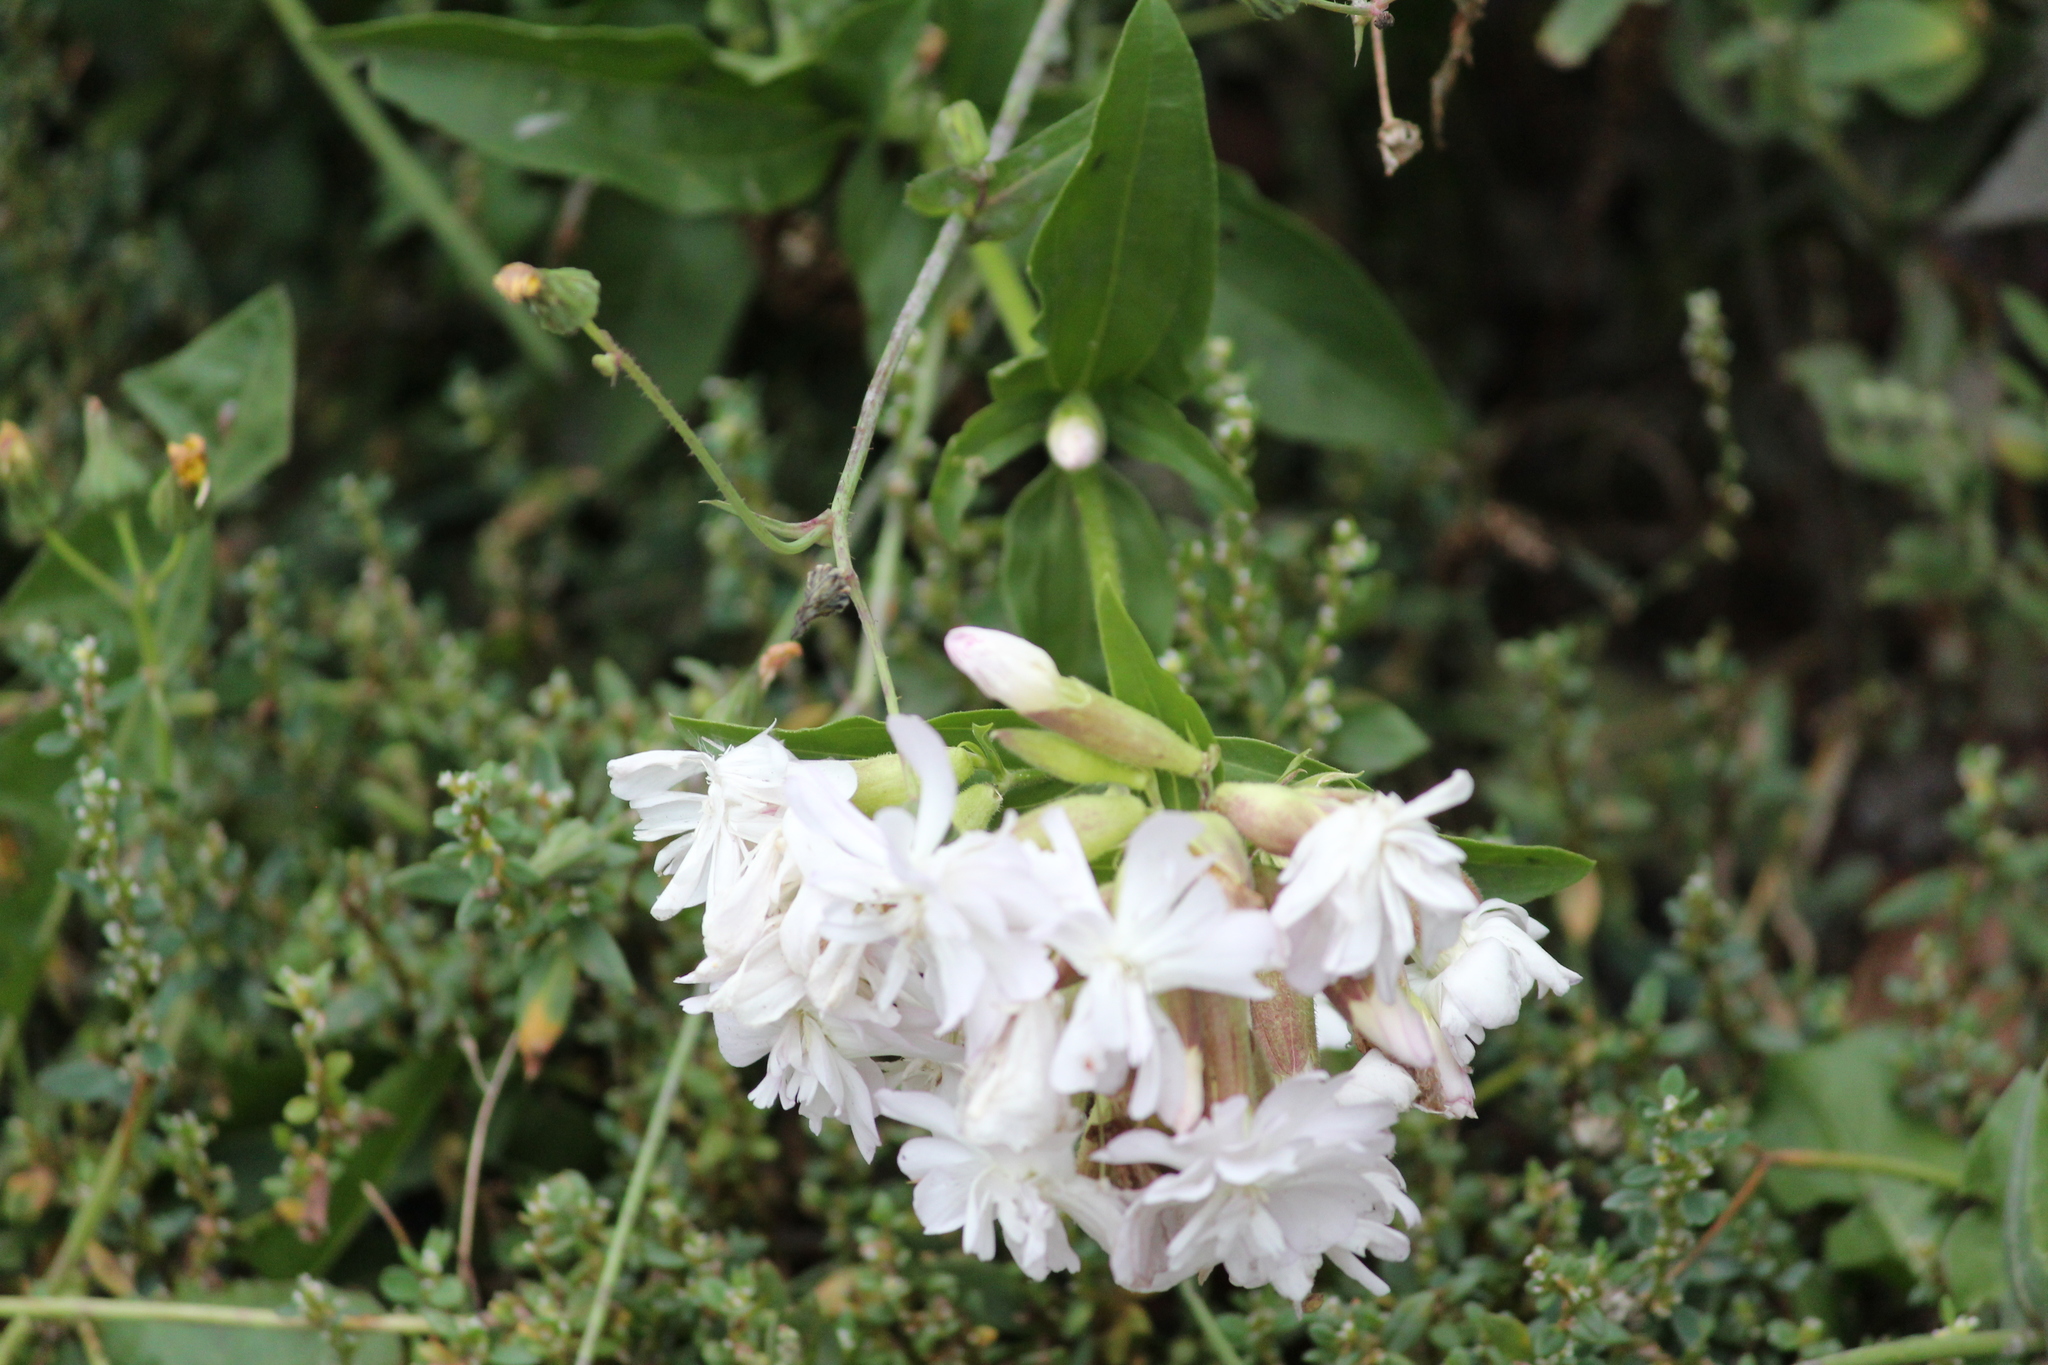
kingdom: Plantae
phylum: Tracheophyta
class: Magnoliopsida
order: Caryophyllales
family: Caryophyllaceae
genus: Saponaria
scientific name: Saponaria officinalis
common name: Soapwort
